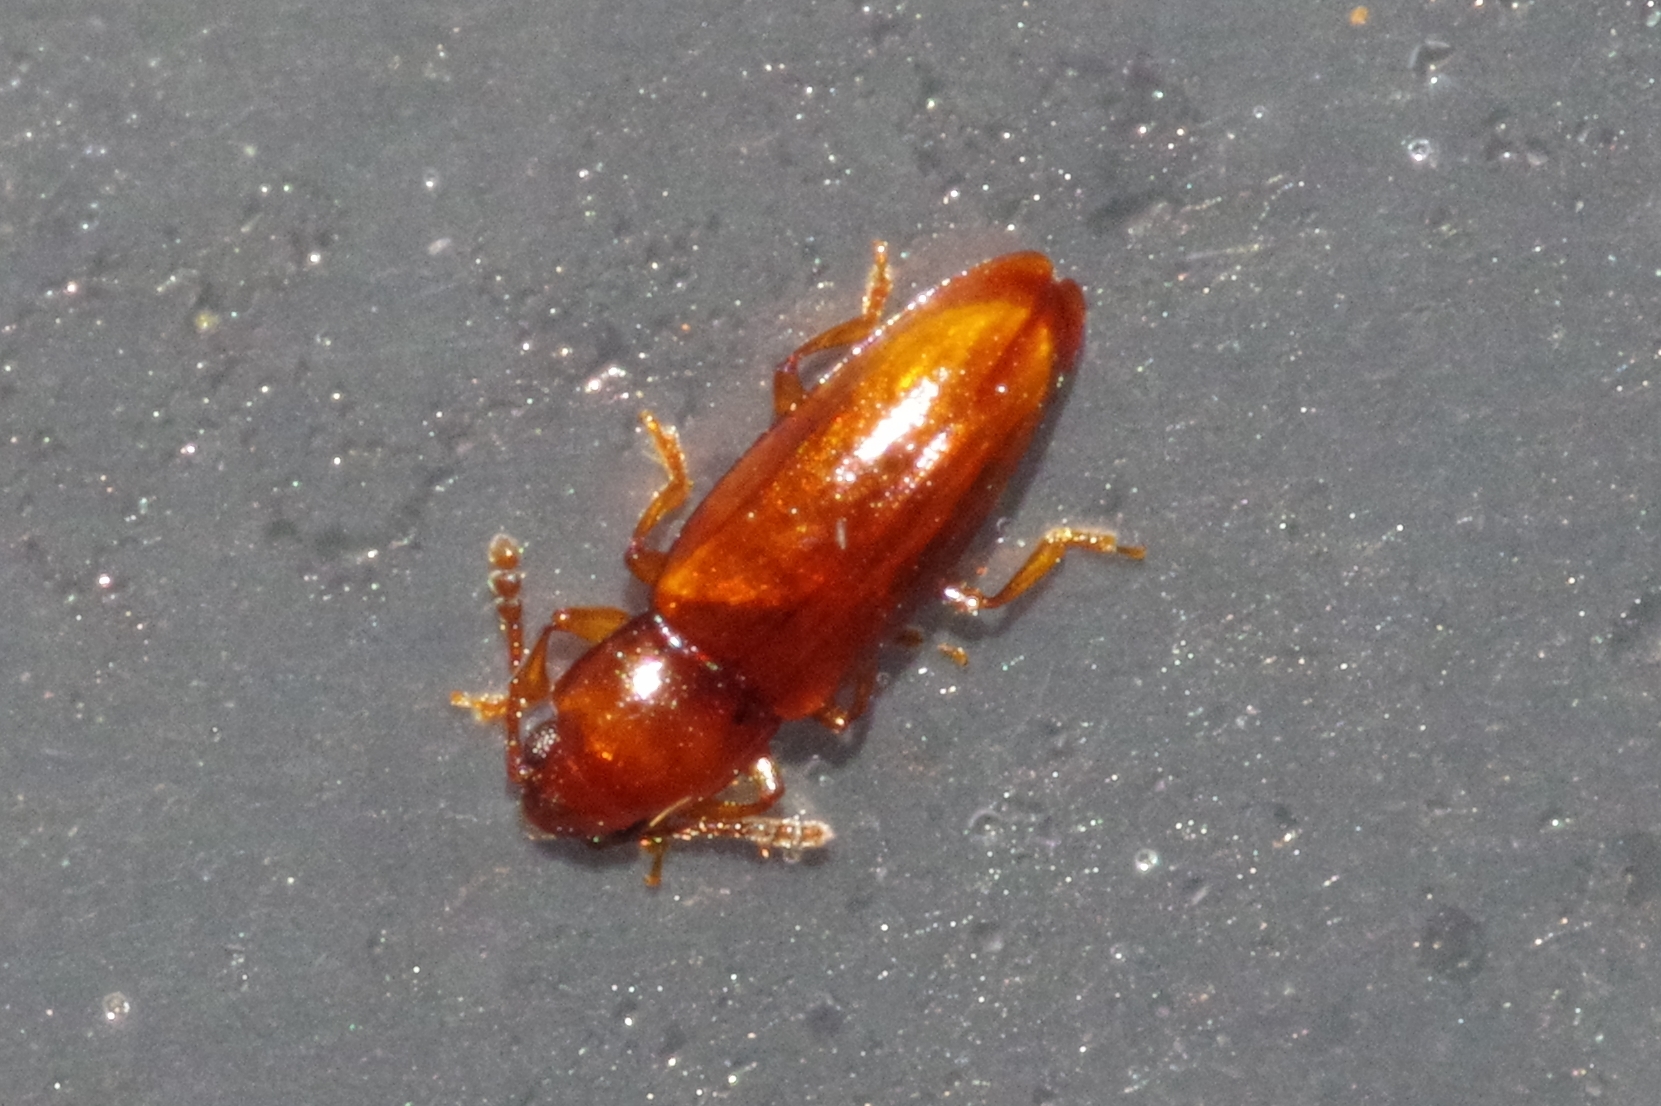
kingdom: Animalia
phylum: Arthropoda
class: Insecta
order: Coleoptera
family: Erotylidae
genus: Microlanguria
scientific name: Microlanguria jansoni
